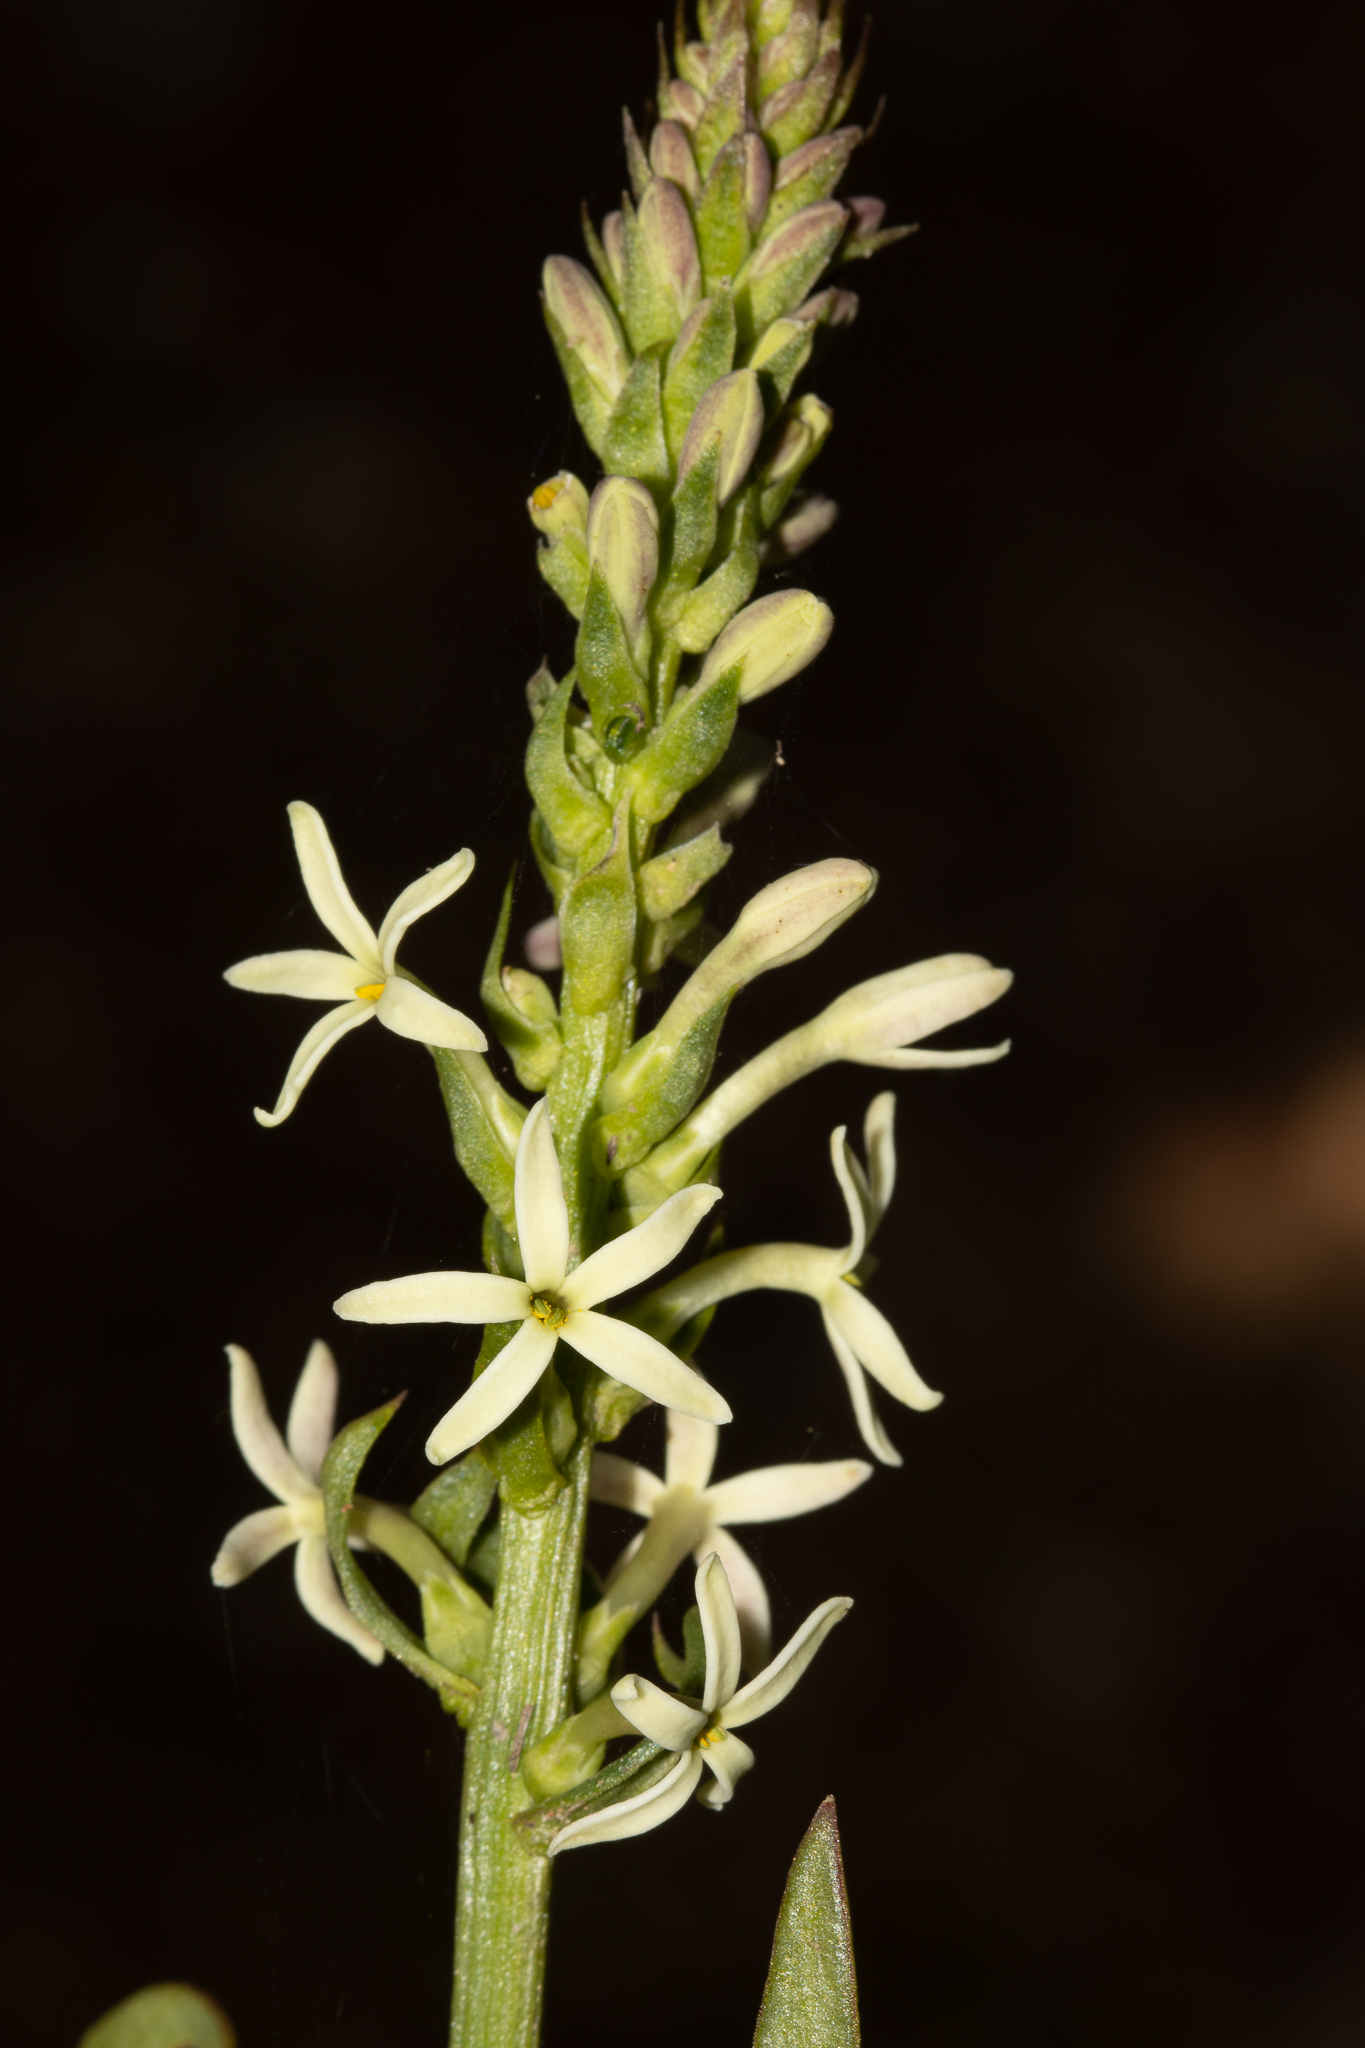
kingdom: Plantae
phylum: Tracheophyta
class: Magnoliopsida
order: Celastrales
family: Celastraceae
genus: Stackhousia
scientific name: Stackhousia monogyna
